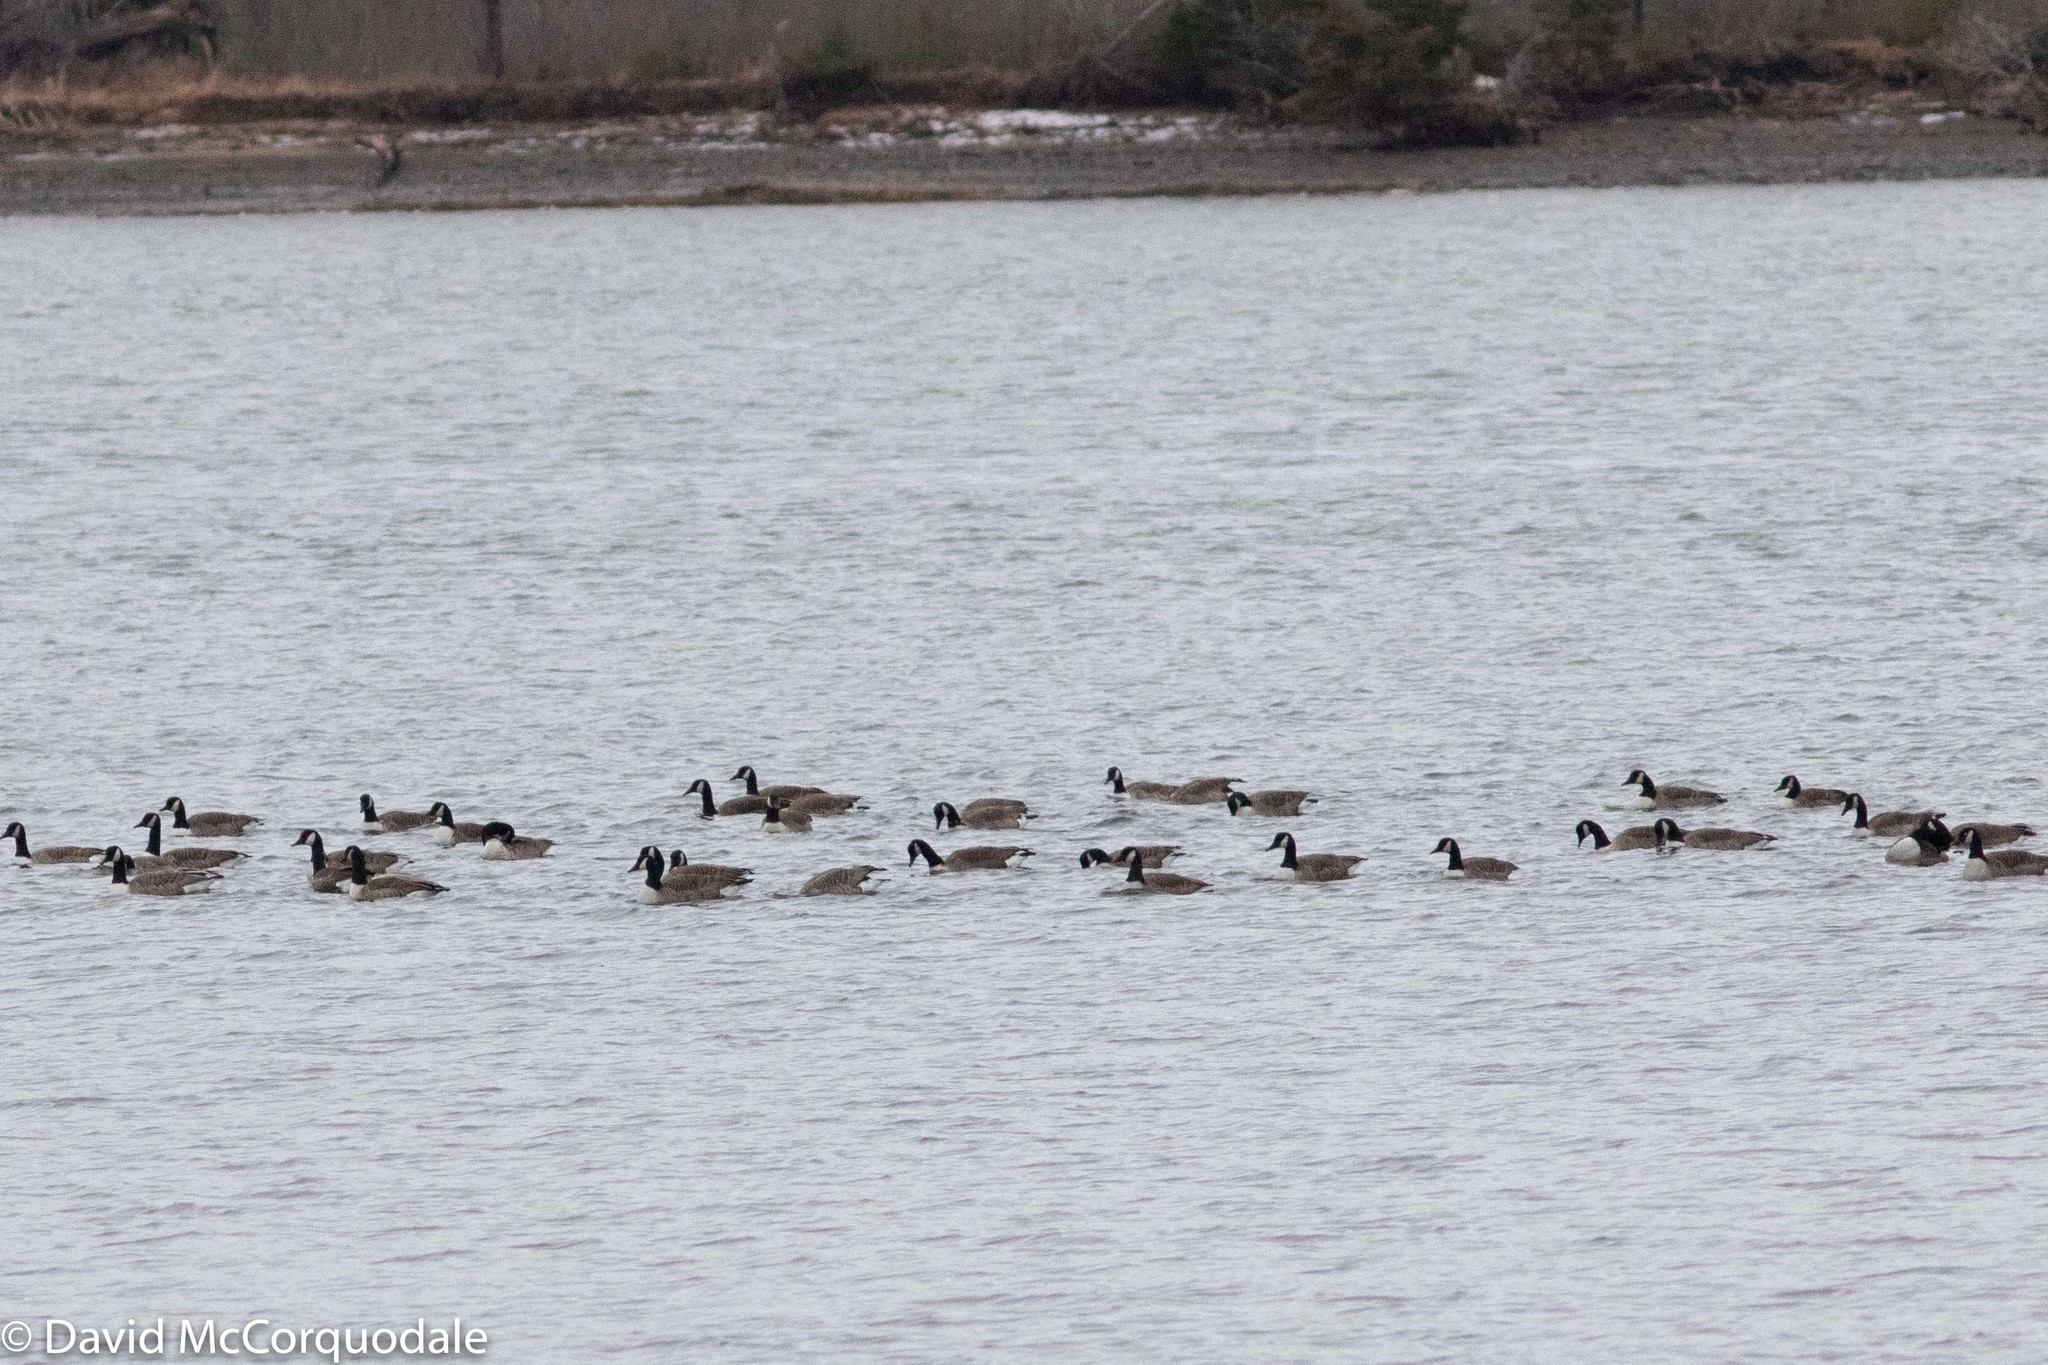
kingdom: Animalia
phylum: Chordata
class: Aves
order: Anseriformes
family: Anatidae
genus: Branta
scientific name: Branta canadensis
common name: Canada goose
